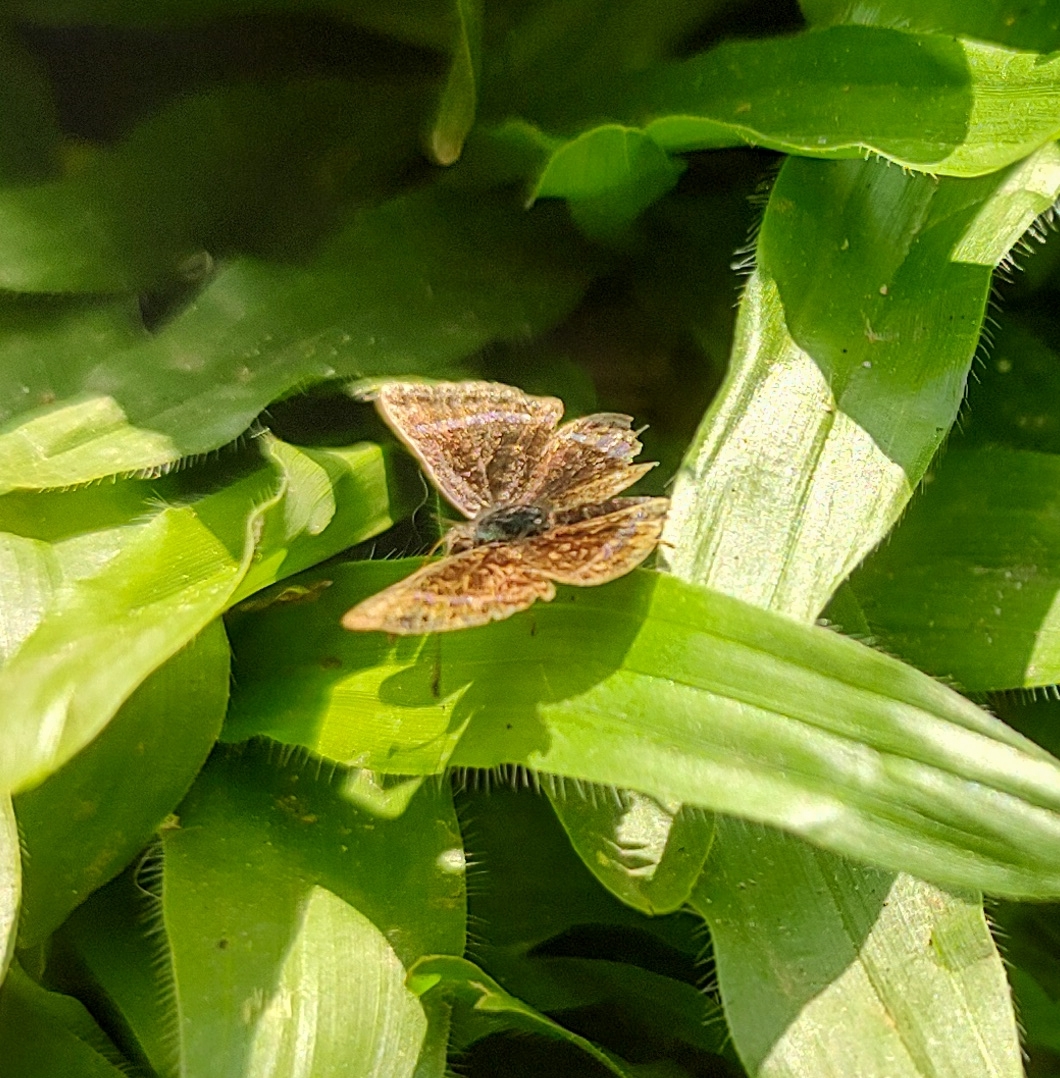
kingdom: Animalia
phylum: Arthropoda
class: Insecta
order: Lepidoptera
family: Riodinidae
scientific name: Riodinidae
